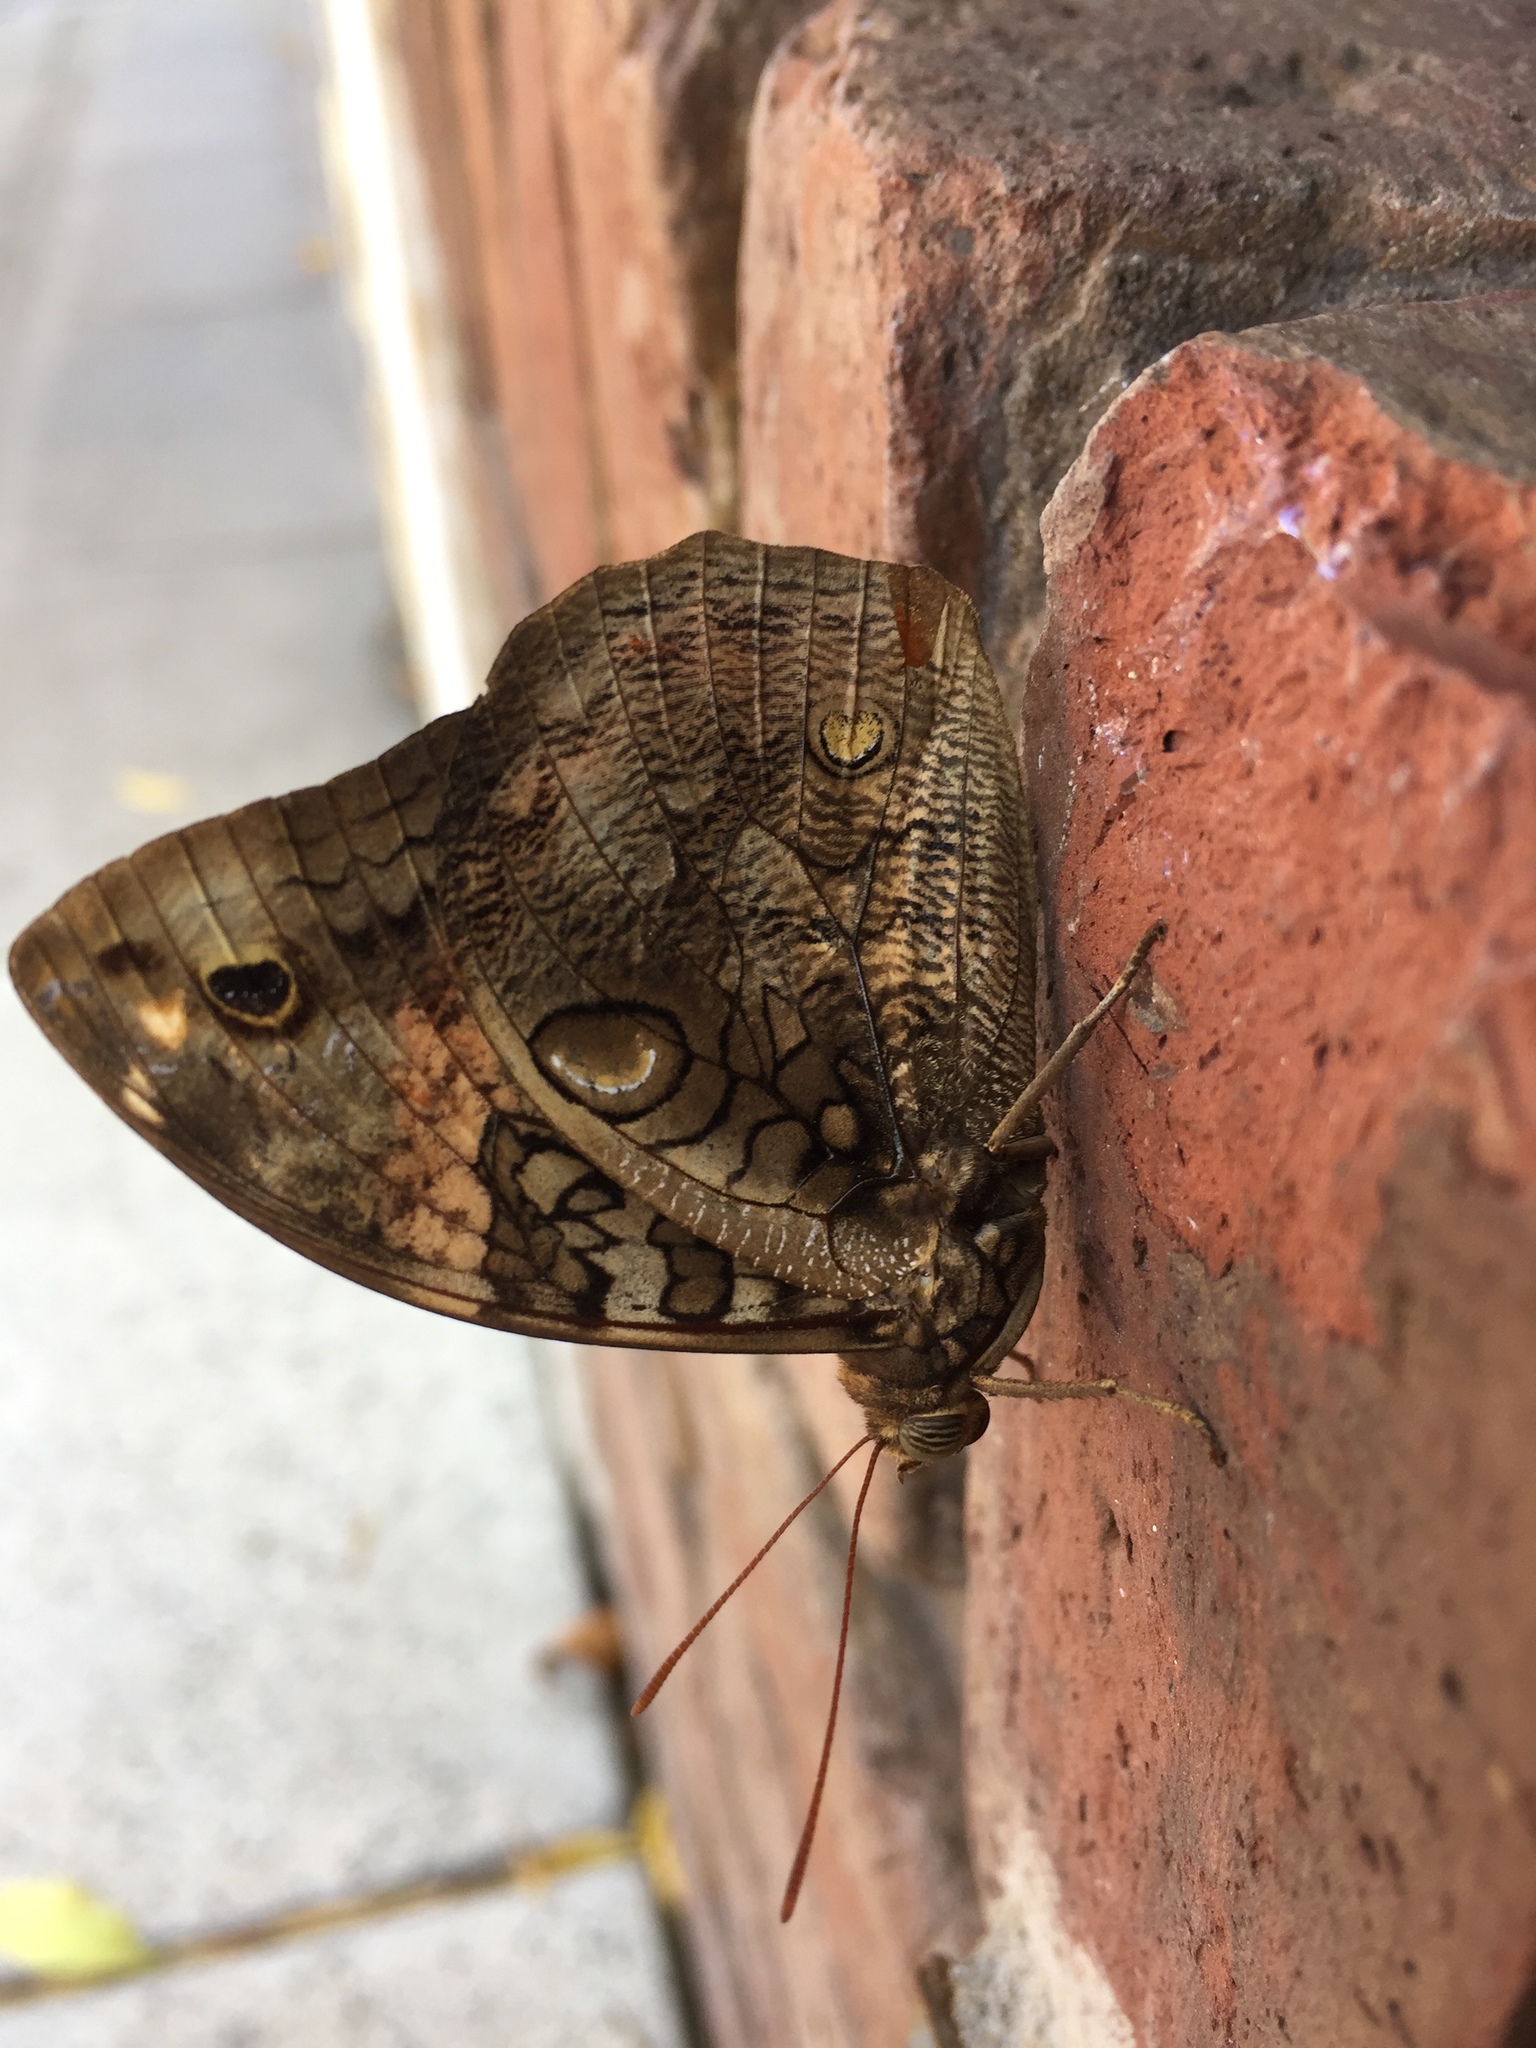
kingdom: Animalia
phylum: Arthropoda
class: Insecta
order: Lepidoptera
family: Nymphalidae
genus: Opsiphanes
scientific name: Opsiphanes invirae
